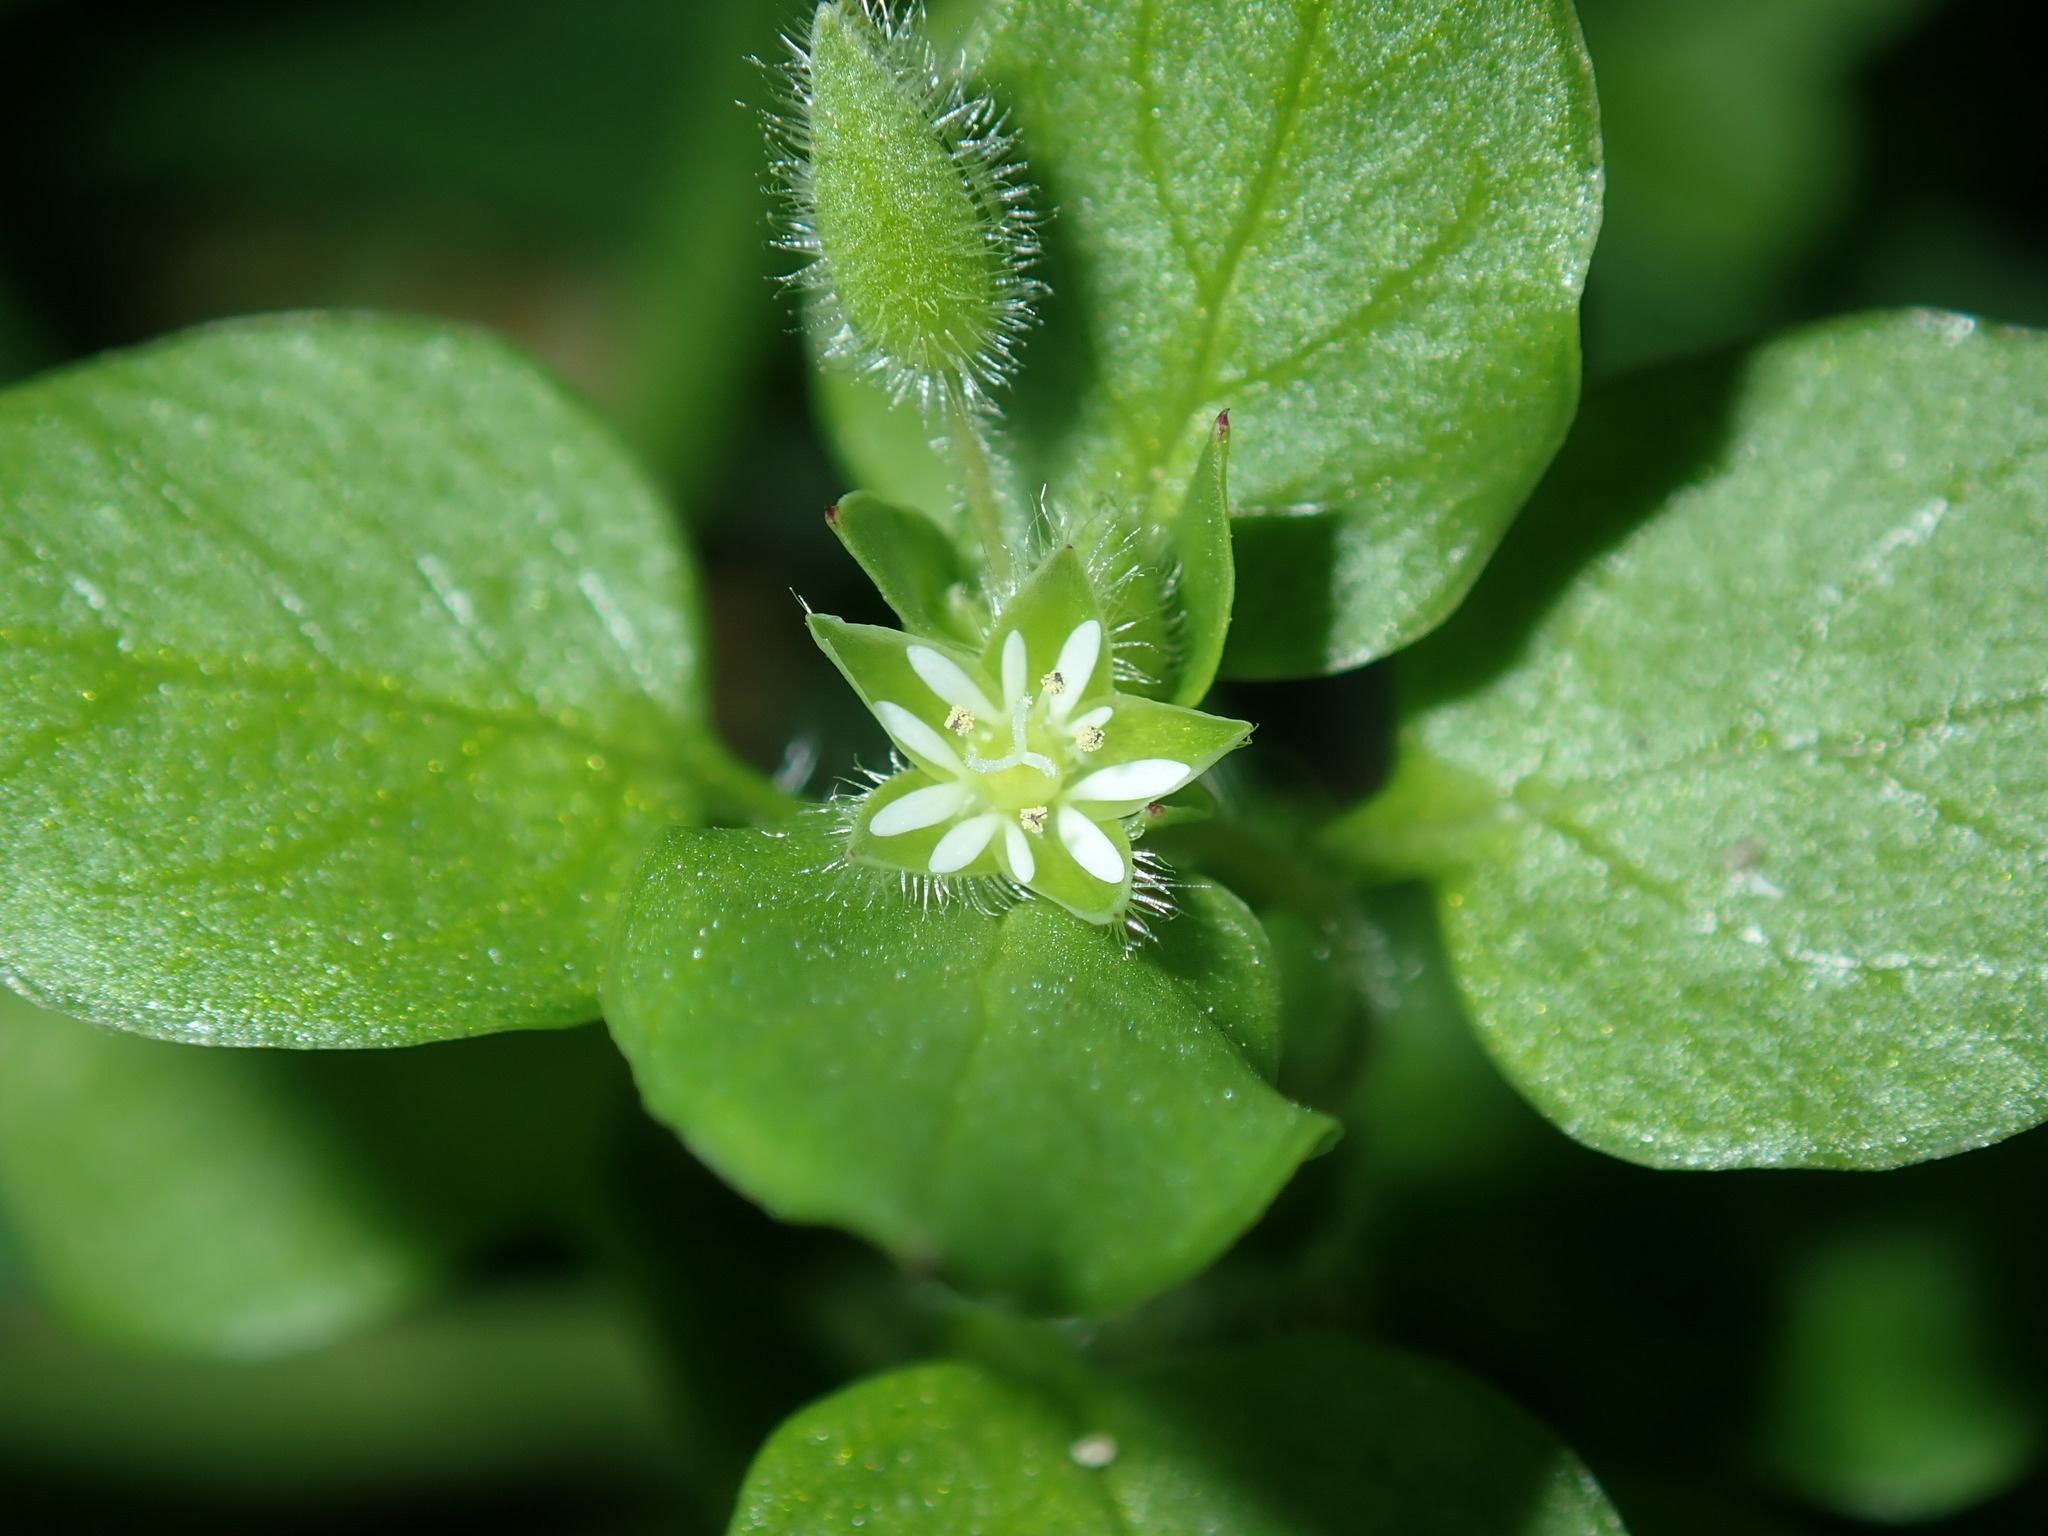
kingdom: Plantae
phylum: Tracheophyta
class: Magnoliopsida
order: Caryophyllales
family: Caryophyllaceae
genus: Stellaria
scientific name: Stellaria media
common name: Common chickweed
